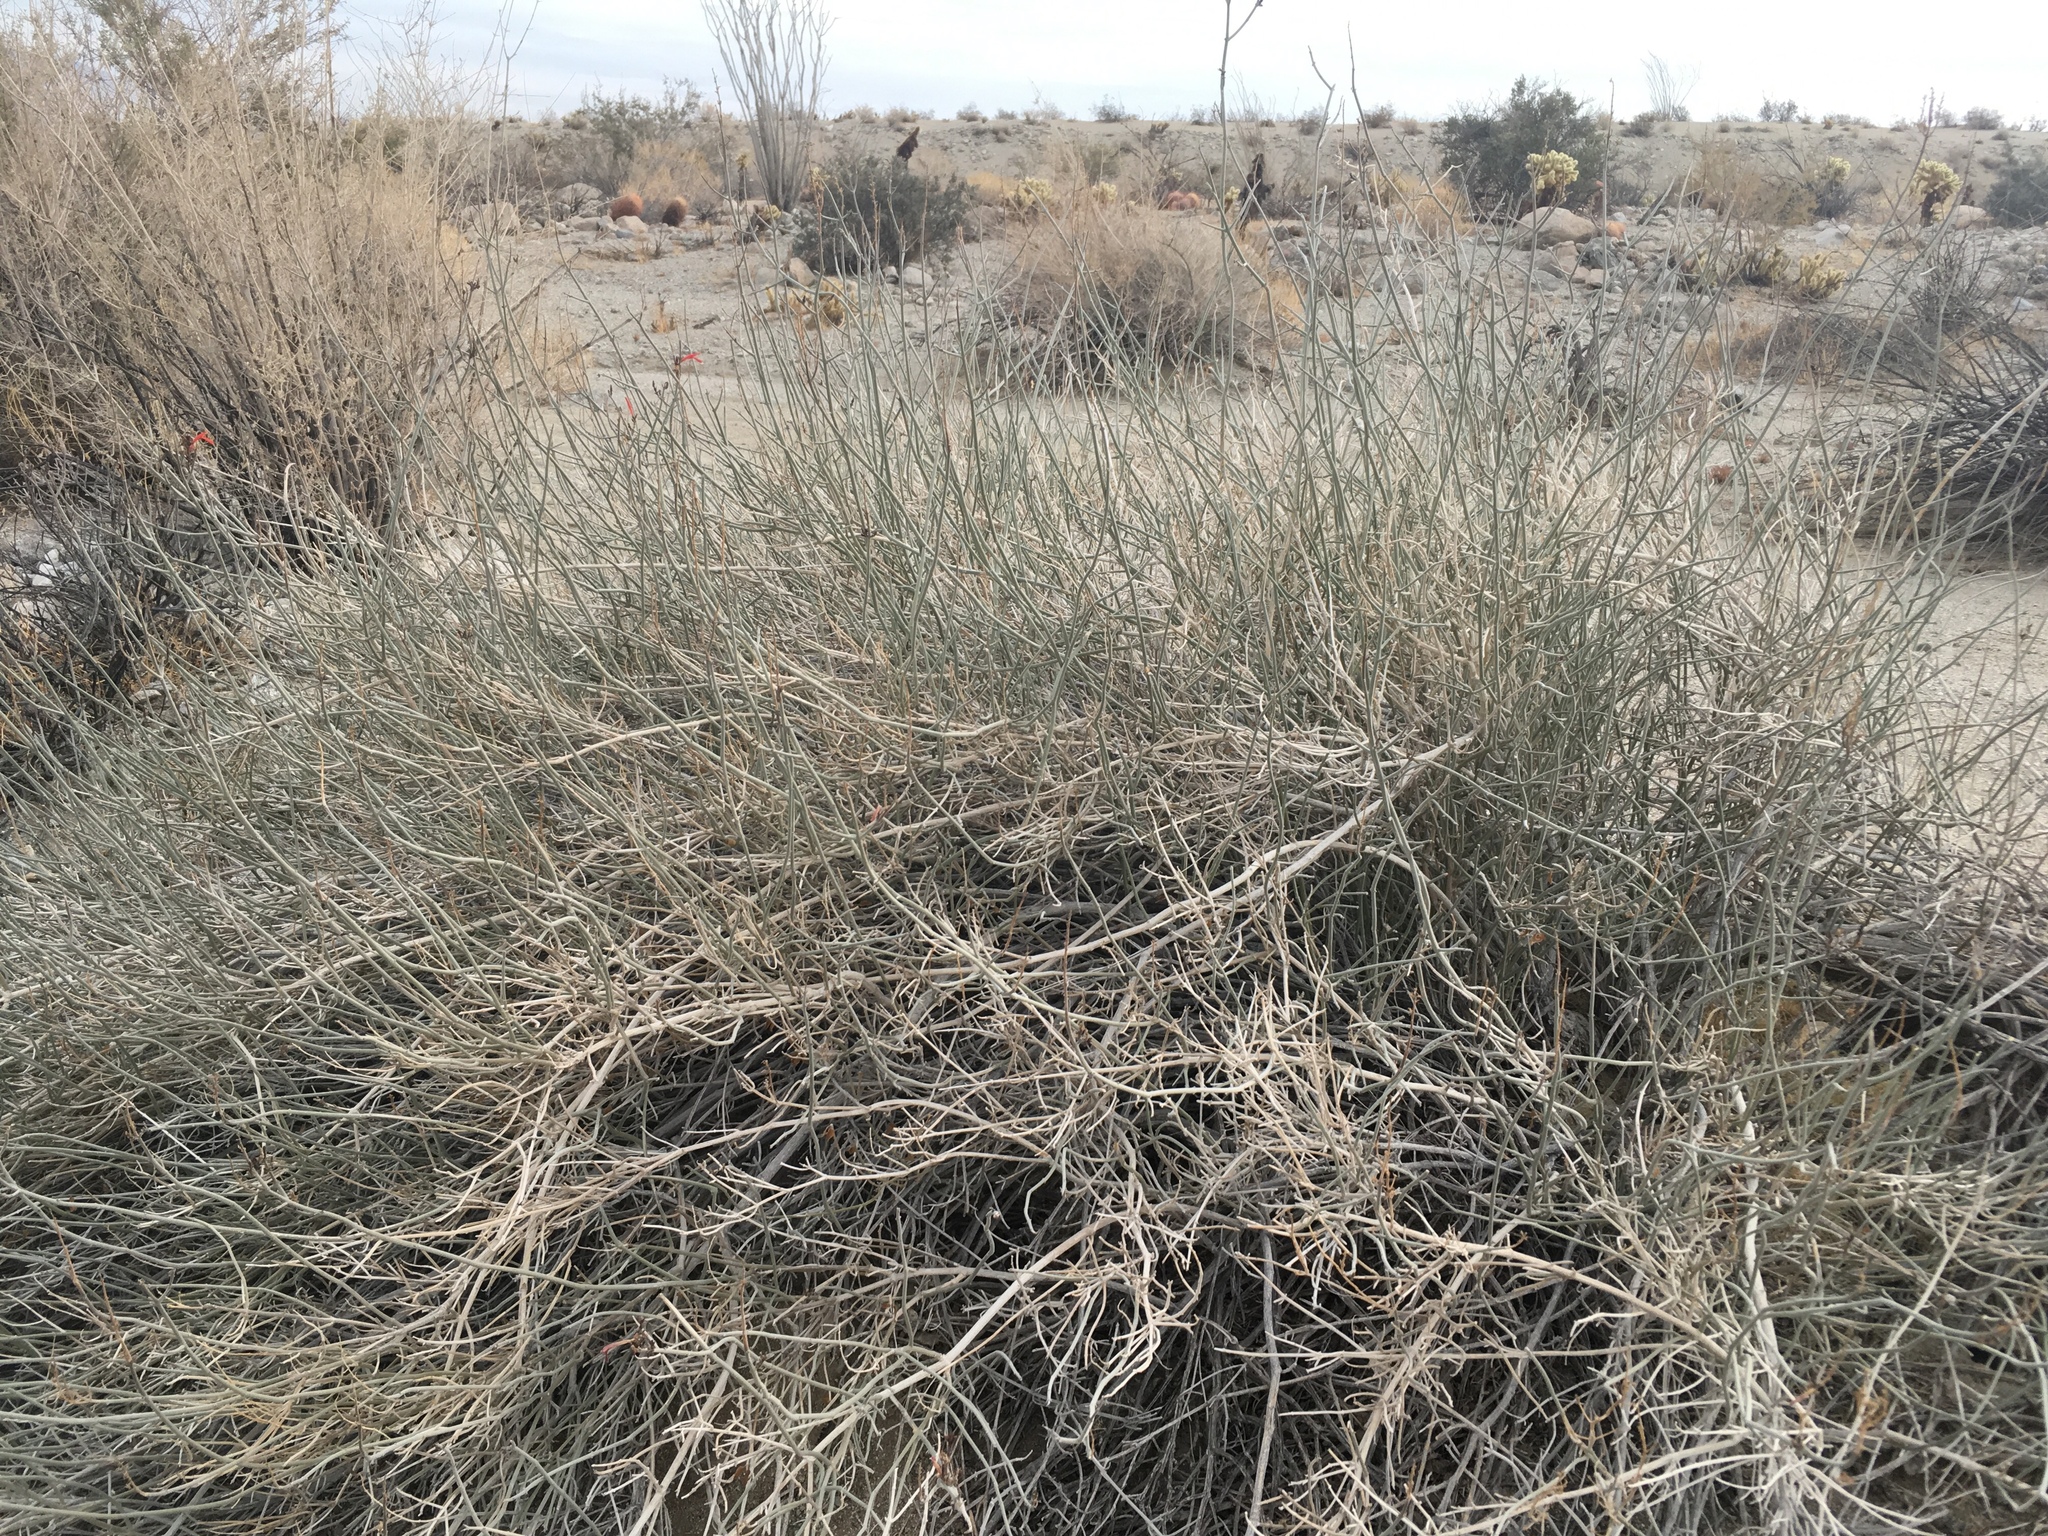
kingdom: Plantae
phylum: Tracheophyta
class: Magnoliopsida
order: Lamiales
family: Acanthaceae
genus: Justicia
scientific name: Justicia californica
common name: Chuparosa-honeysuckle
